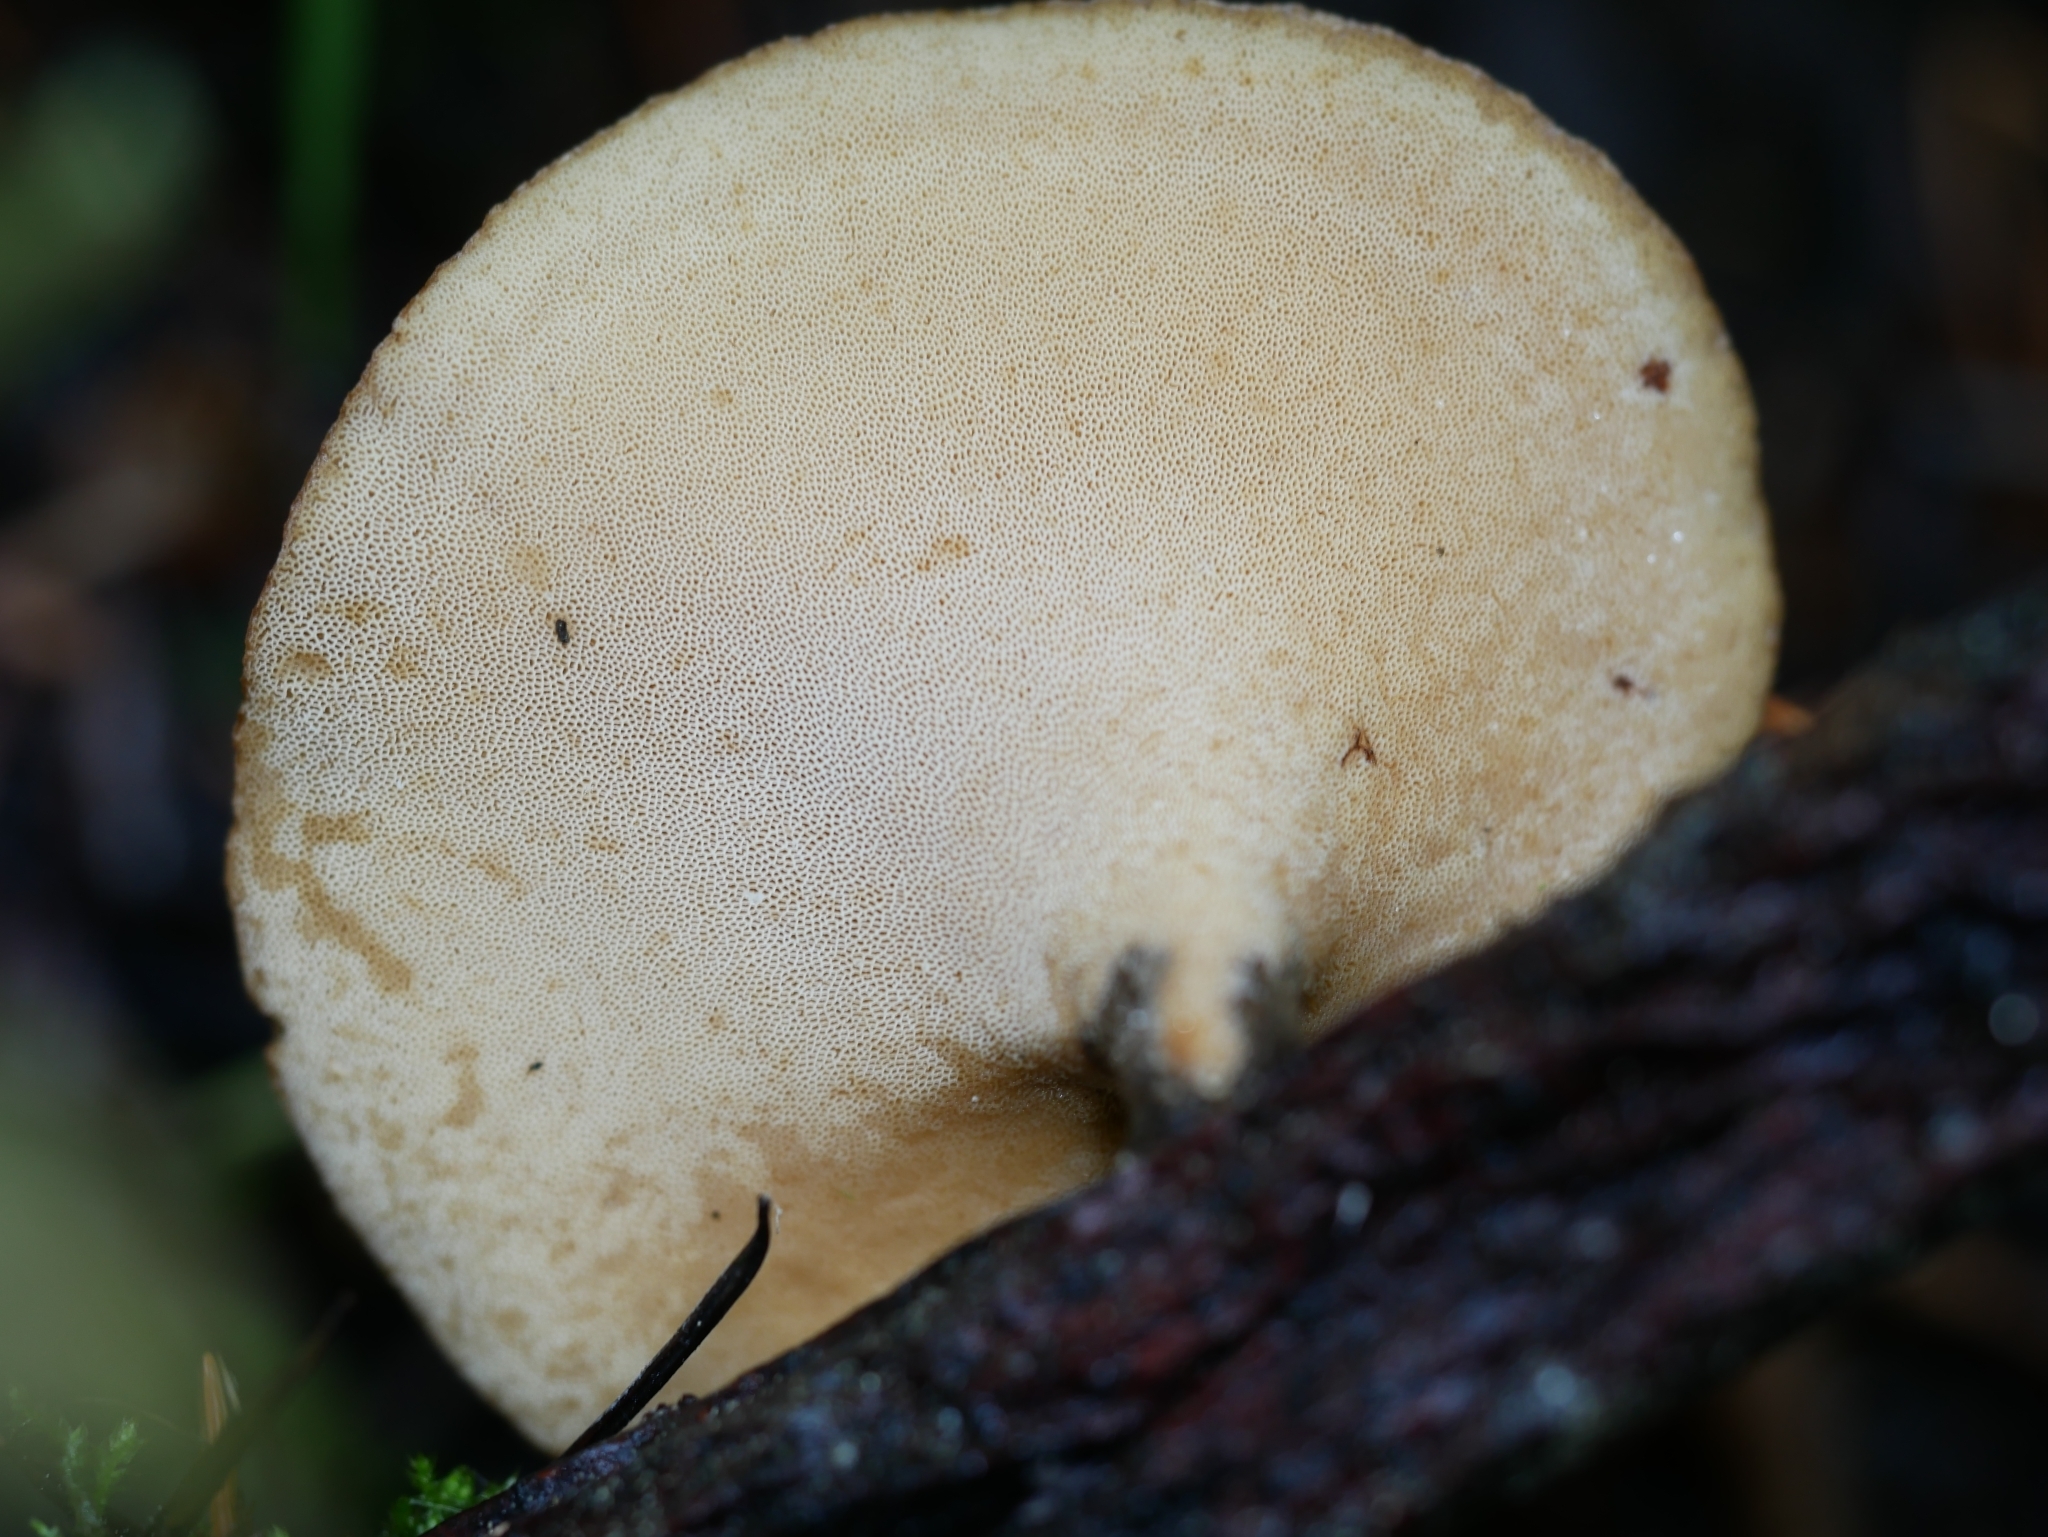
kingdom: Fungi
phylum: Basidiomycota
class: Agaricomycetes
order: Polyporales
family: Polyporaceae
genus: Picipes
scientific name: Picipes badius
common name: Bay polypore
